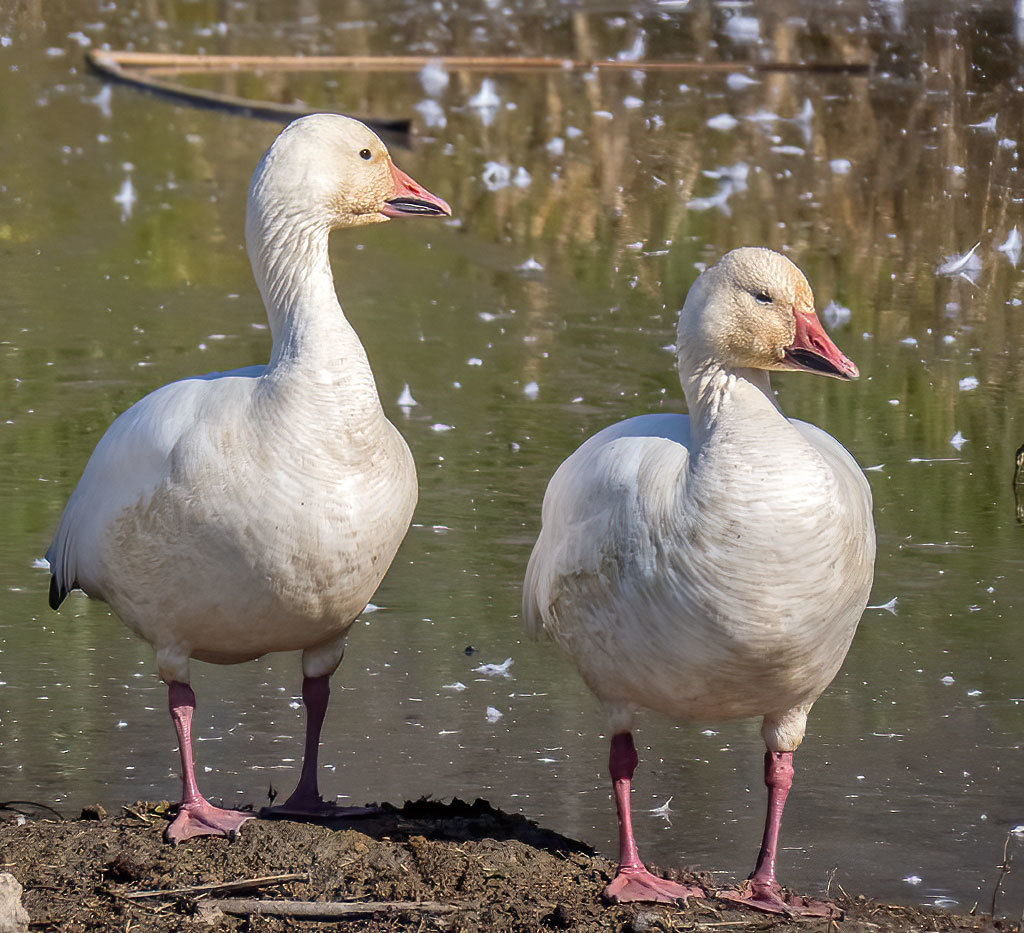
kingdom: Animalia
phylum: Chordata
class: Aves
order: Anseriformes
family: Anatidae
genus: Anser
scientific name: Anser caerulescens
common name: Snow goose
